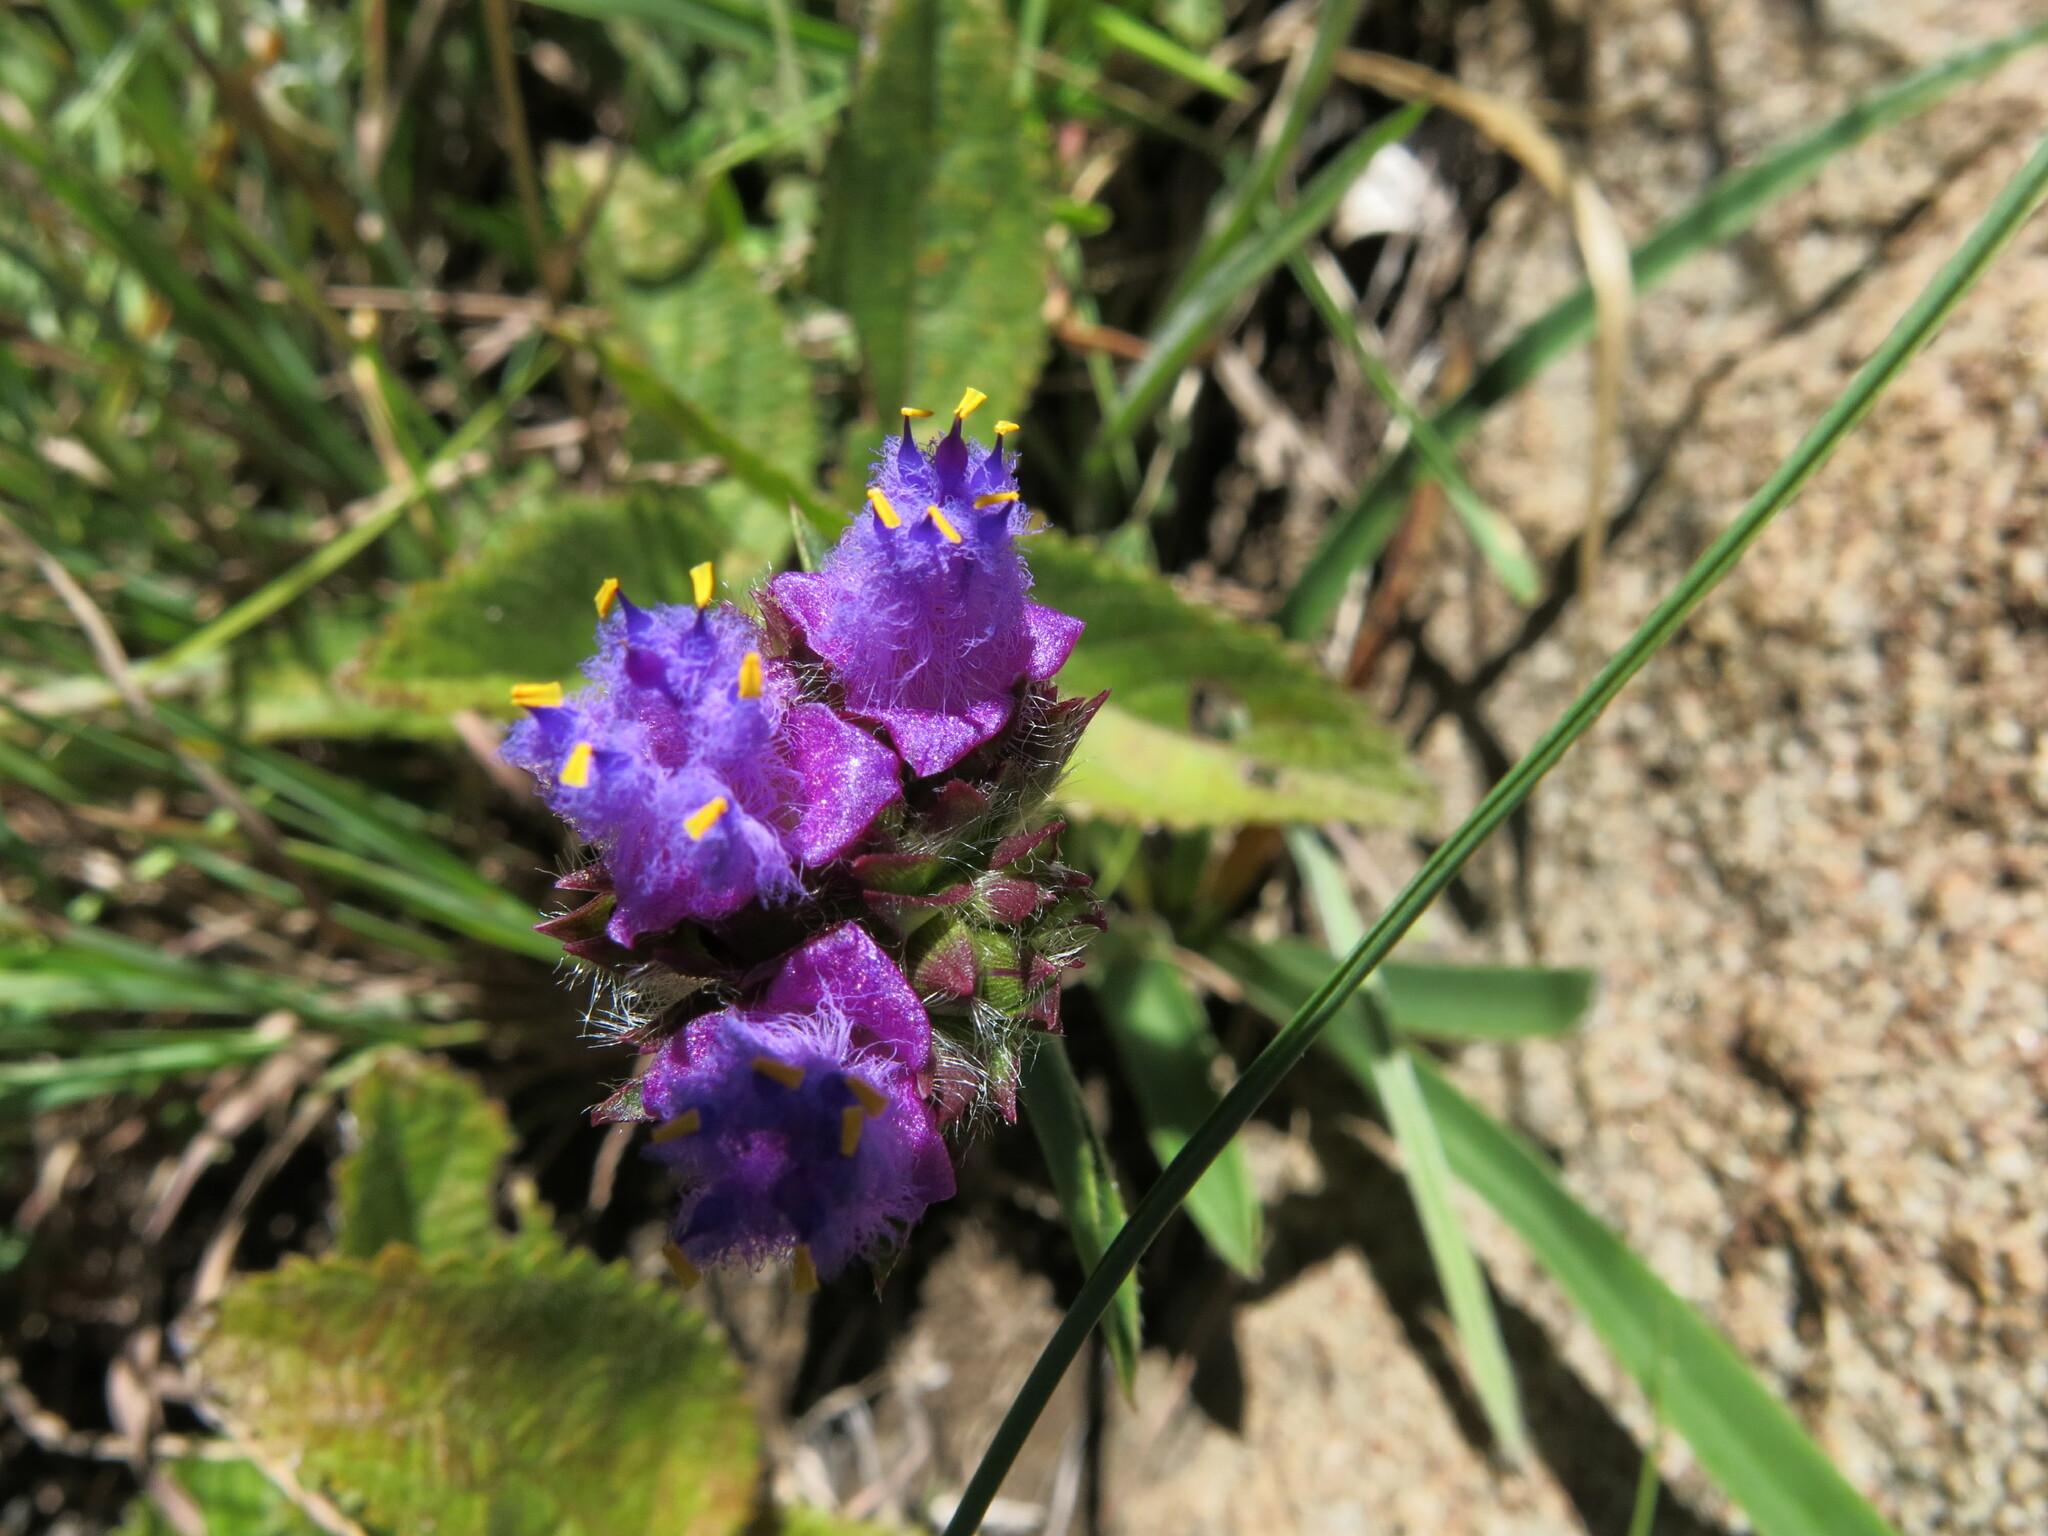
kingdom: Plantae
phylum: Tracheophyta
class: Liliopsida
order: Commelinales
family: Commelinaceae
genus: Cyanotis
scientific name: Cyanotis speciosa
